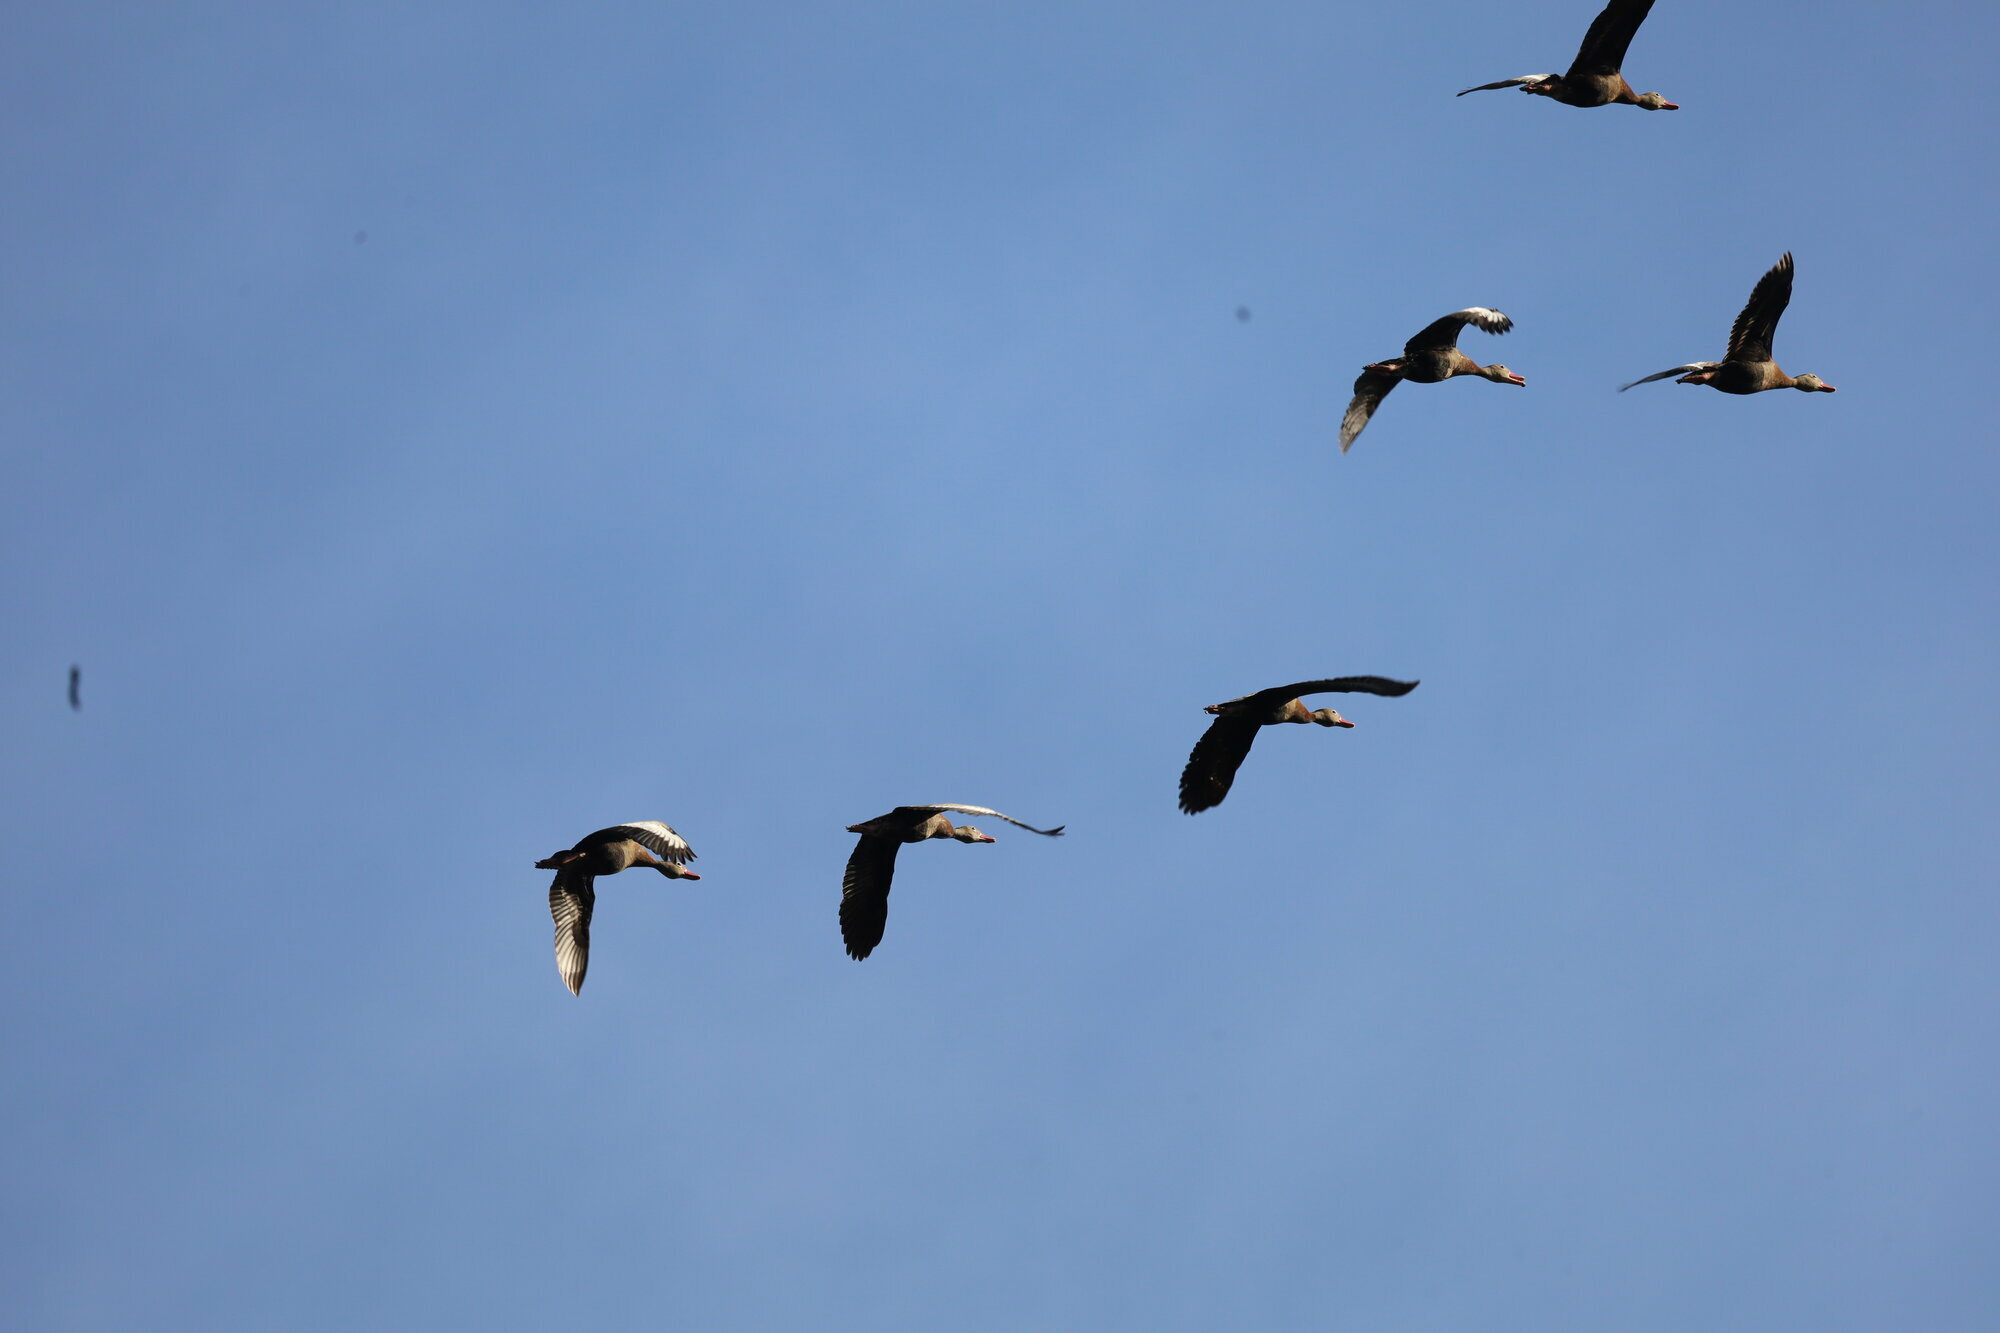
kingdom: Animalia
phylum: Chordata
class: Aves
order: Anseriformes
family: Anatidae
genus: Dendrocygna
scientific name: Dendrocygna autumnalis
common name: Black-bellied whistling duck
